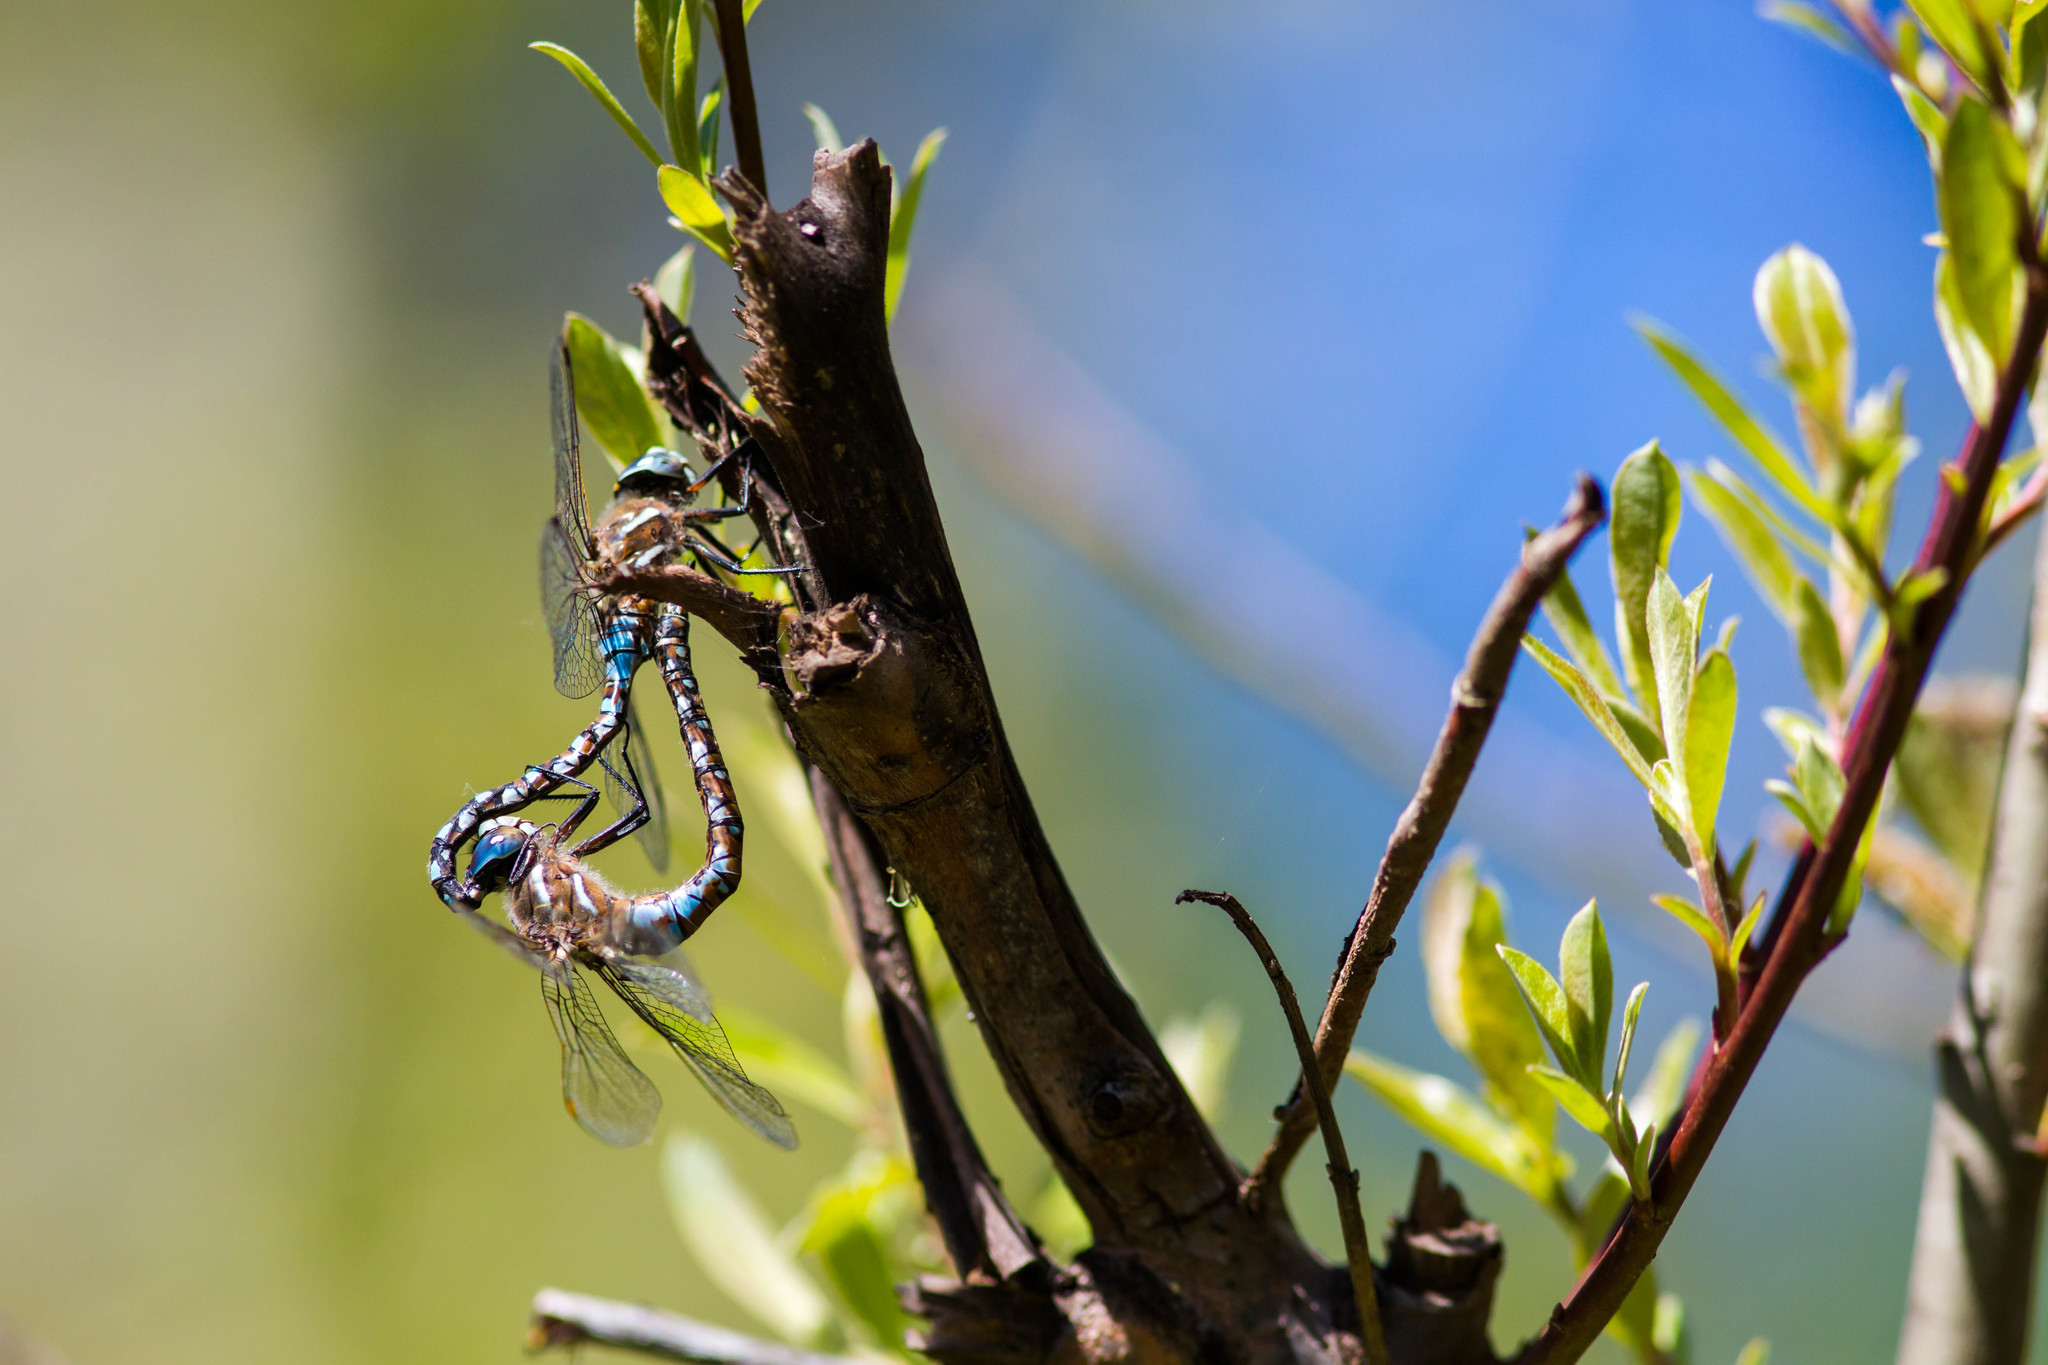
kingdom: Animalia
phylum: Arthropoda
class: Insecta
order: Odonata
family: Aeshnidae
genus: Rhionaeschna
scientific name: Rhionaeschna californica
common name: California darner
